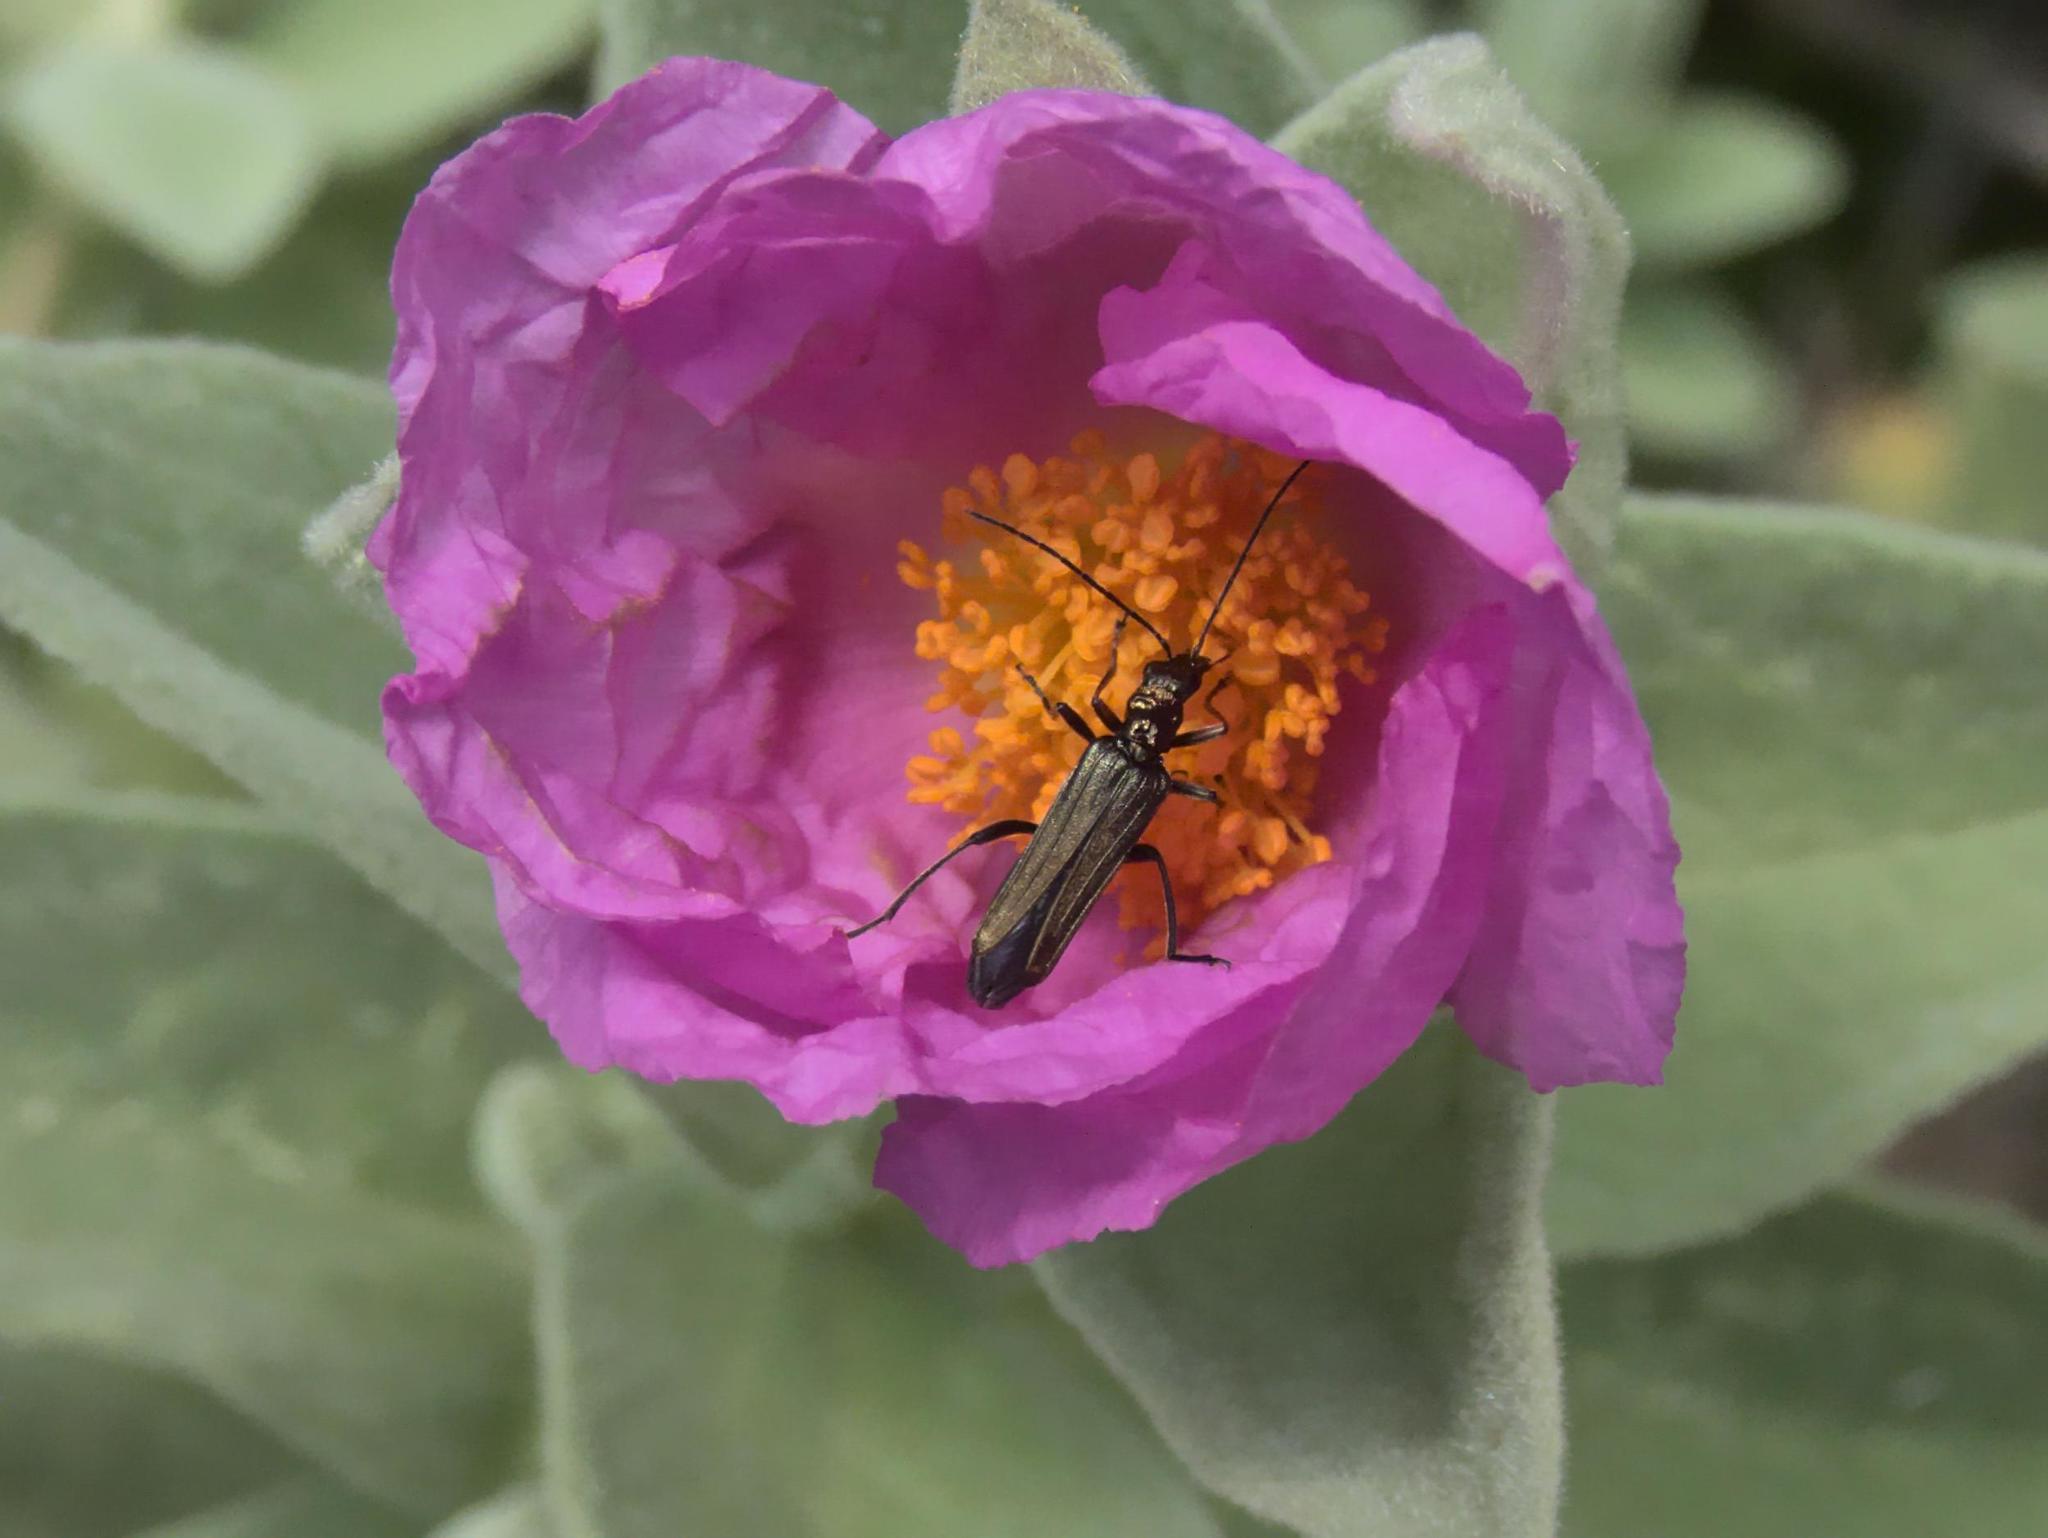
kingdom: Animalia
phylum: Arthropoda
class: Insecta
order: Coleoptera
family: Oedemeridae
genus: Oedemera
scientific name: Oedemera flavipes
